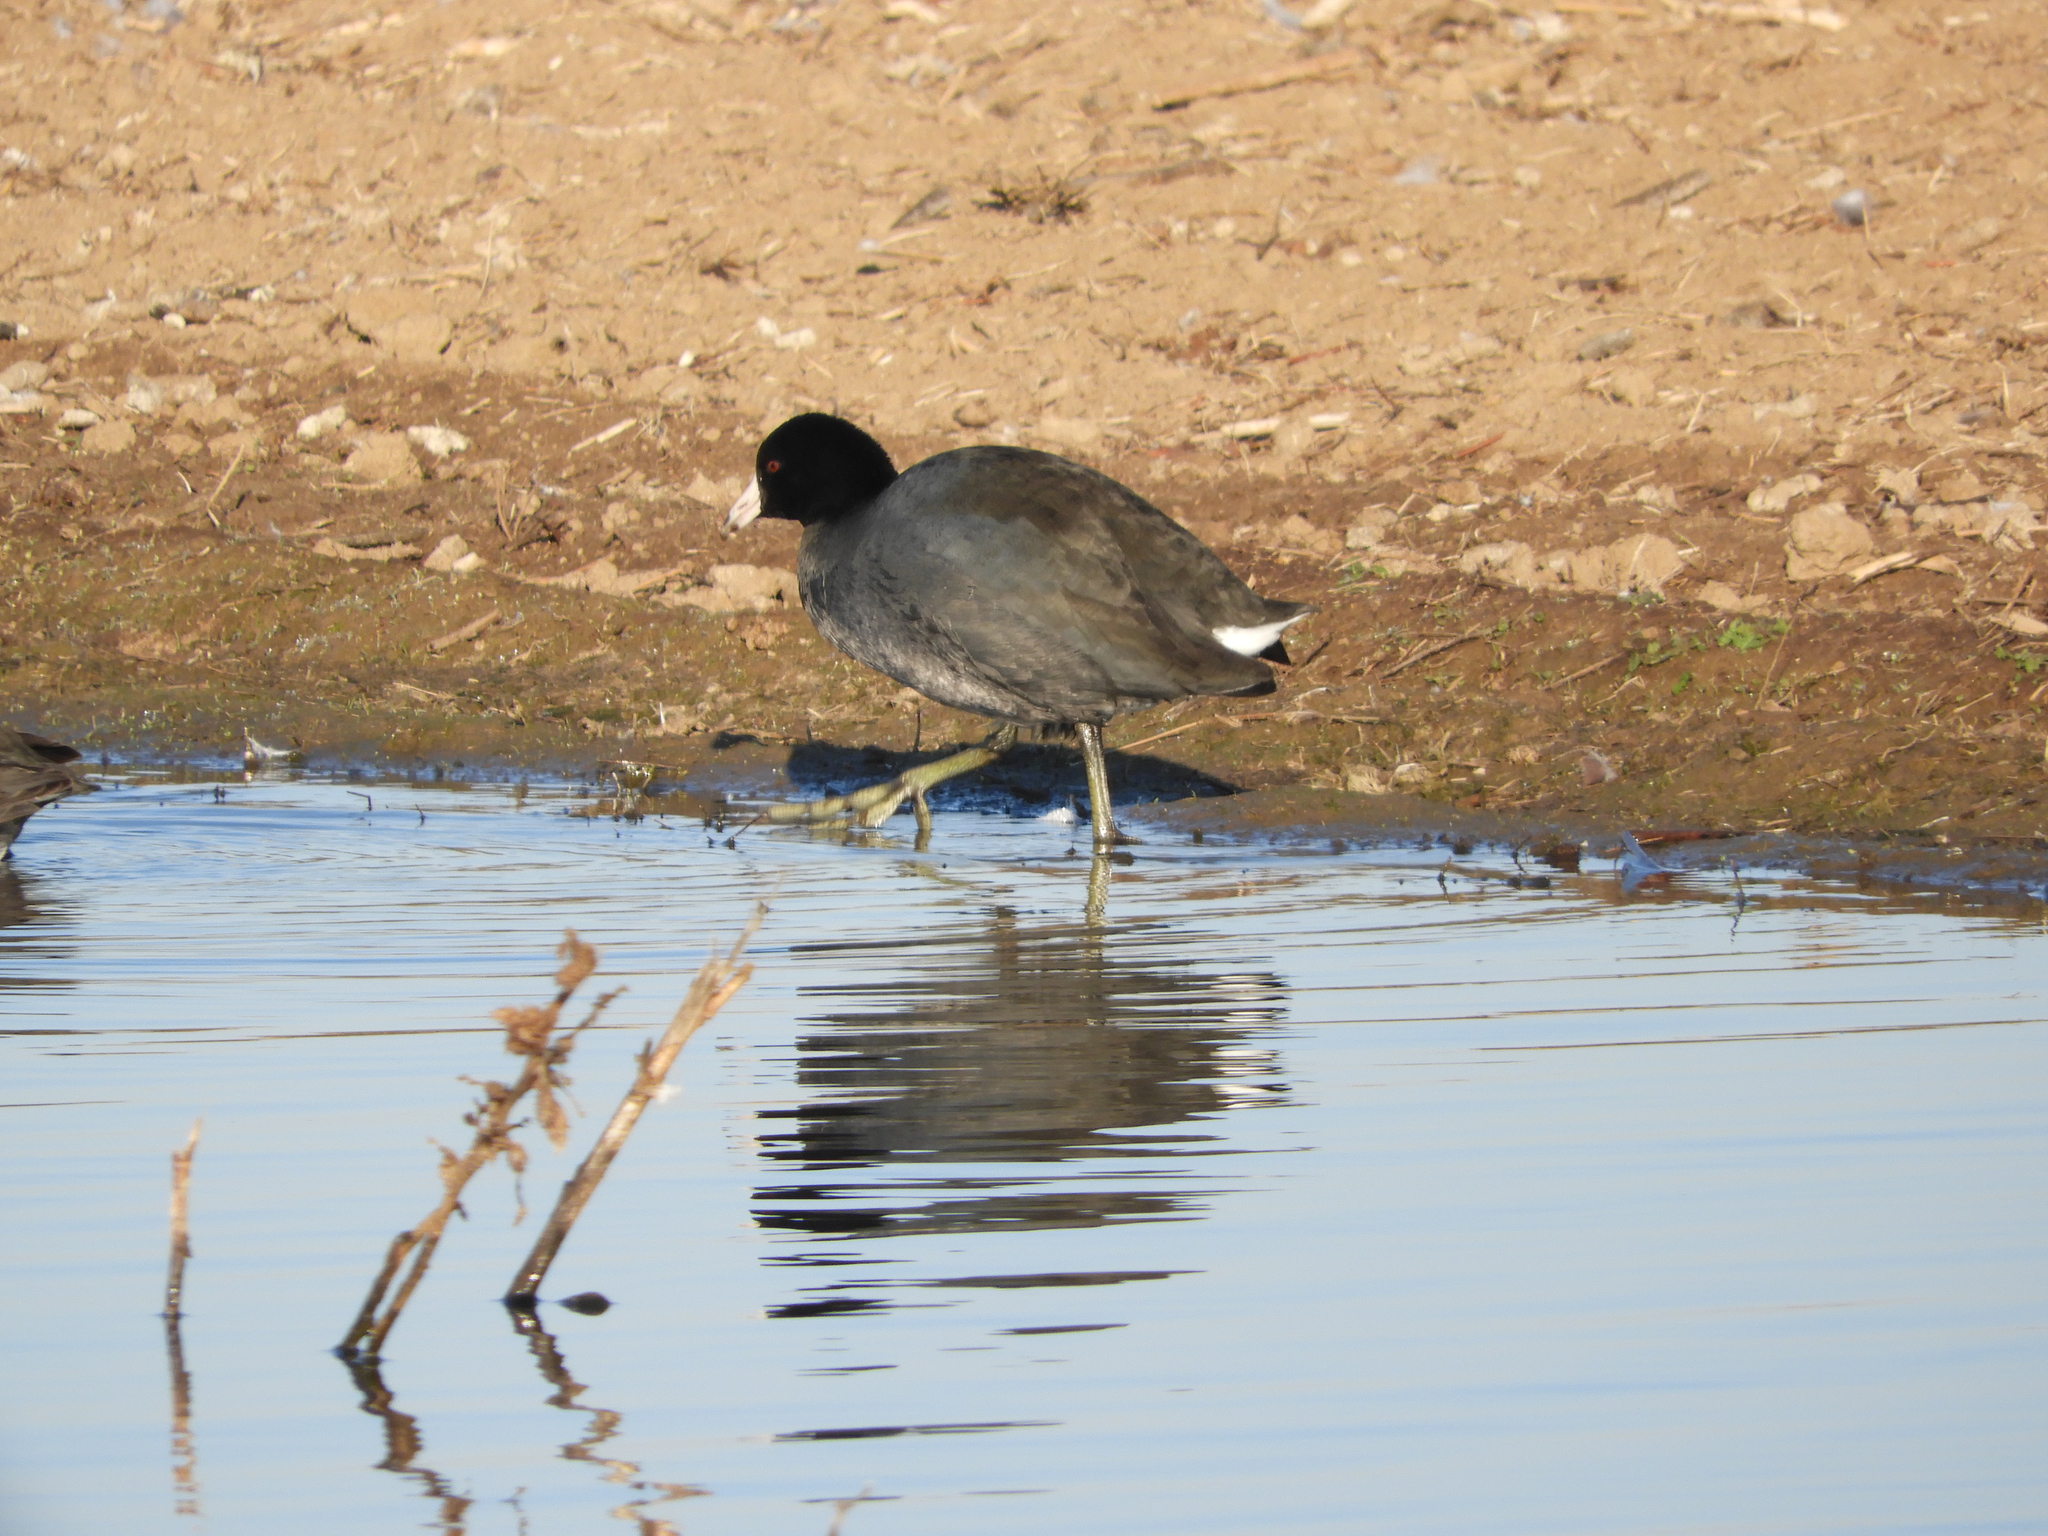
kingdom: Animalia
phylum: Chordata
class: Aves
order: Gruiformes
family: Rallidae
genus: Fulica
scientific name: Fulica americana
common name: American coot
